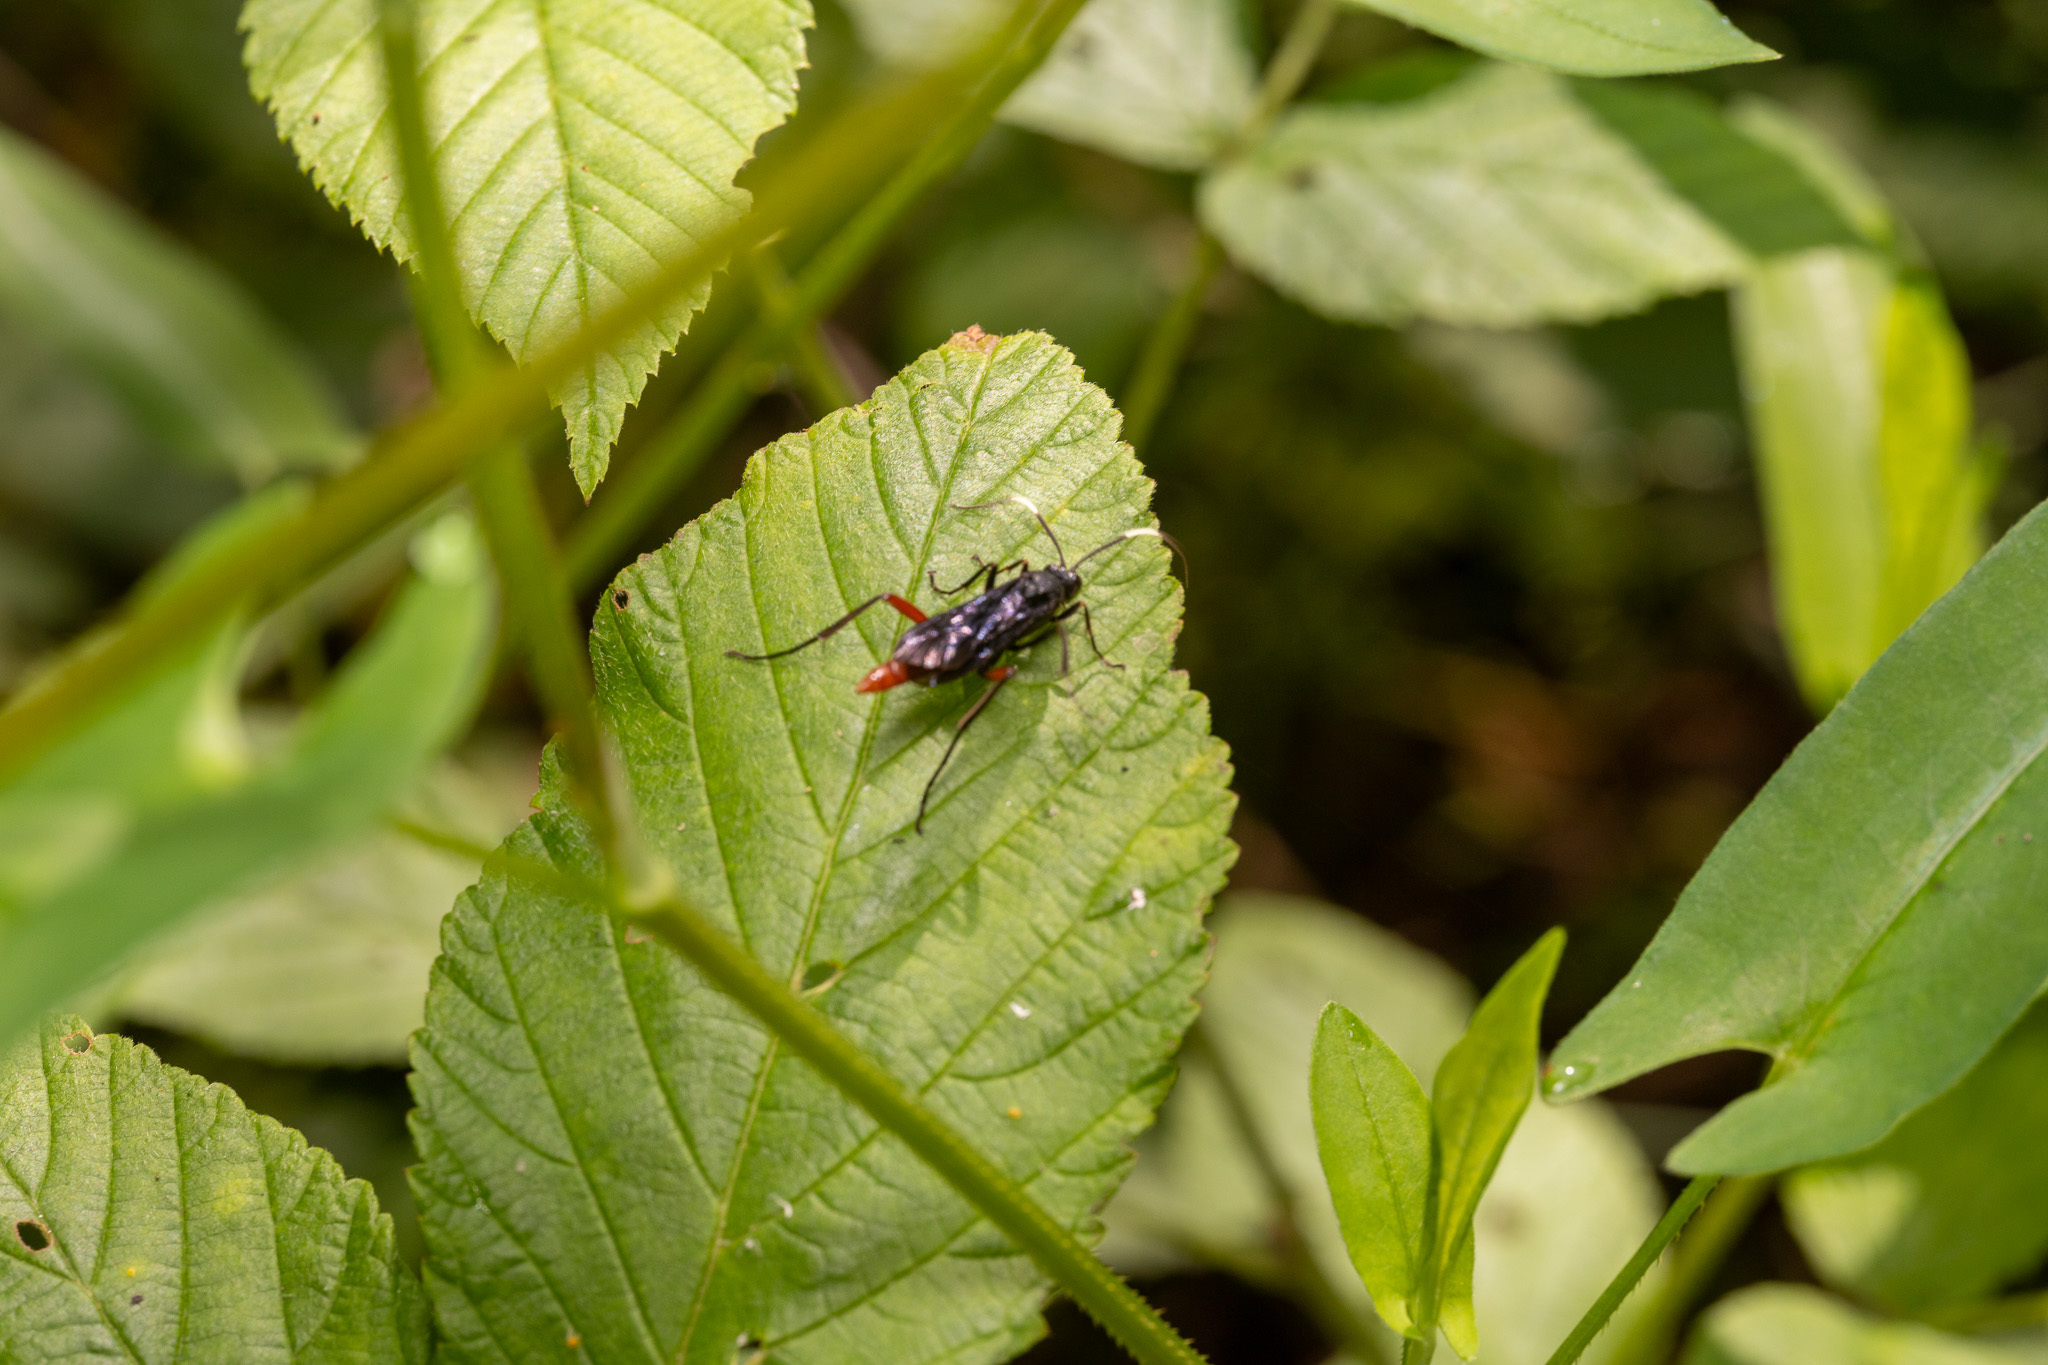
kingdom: Animalia
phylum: Arthropoda
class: Insecta
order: Hymenoptera
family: Ichneumonidae
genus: Limonethe
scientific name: Limonethe maurator
